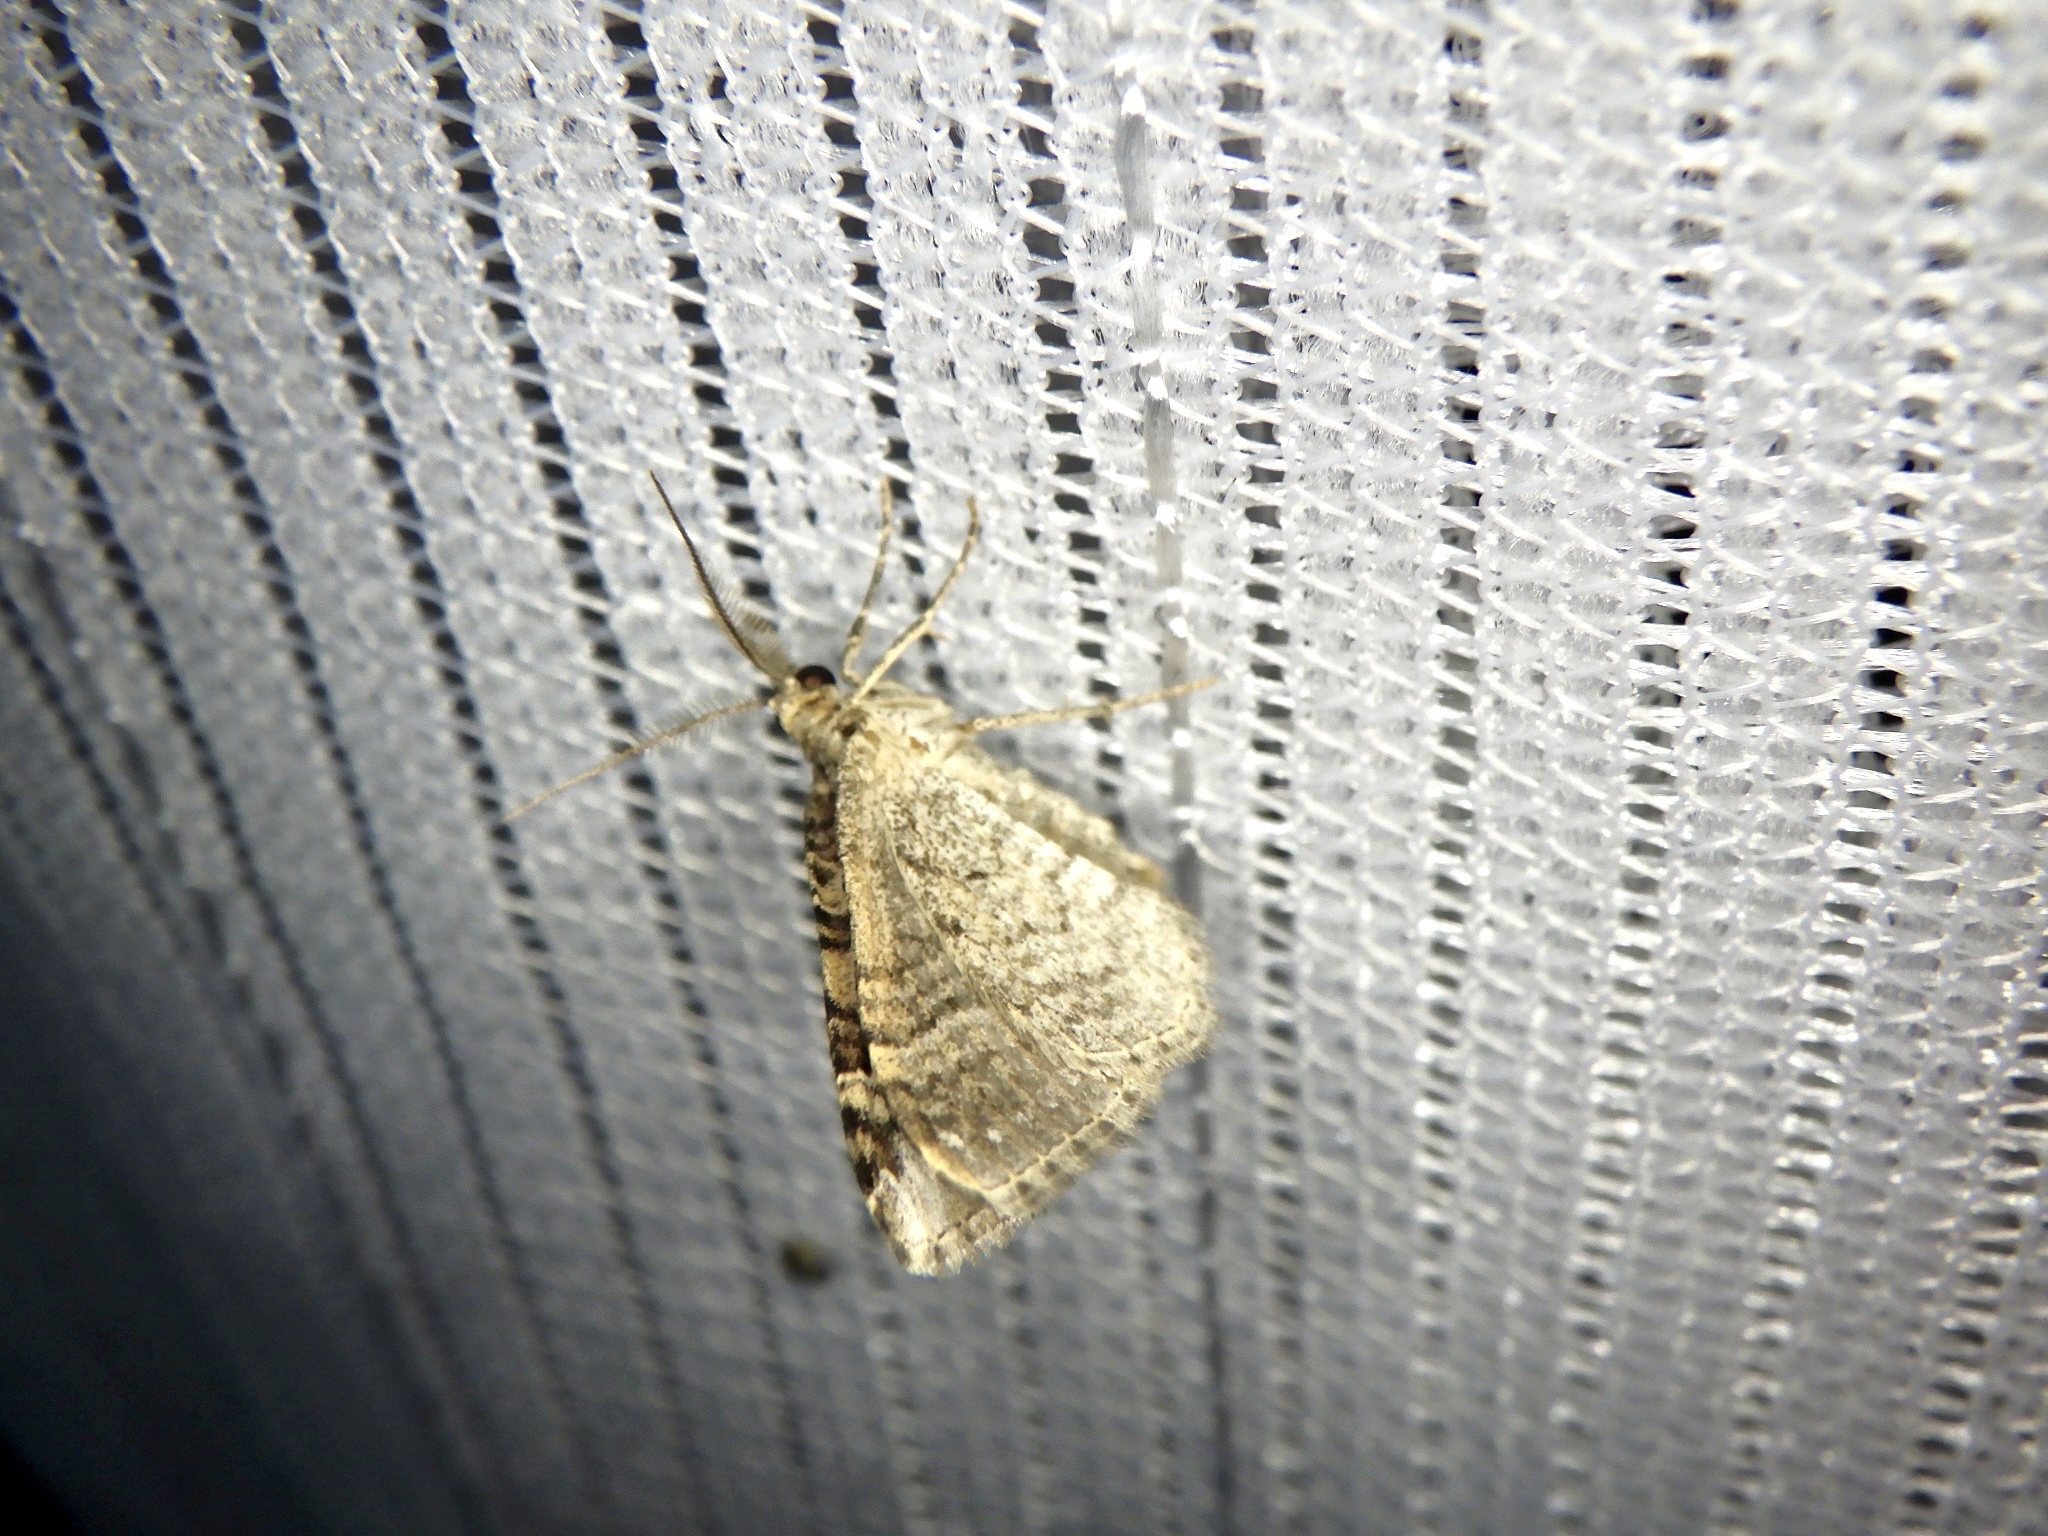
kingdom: Animalia
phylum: Arthropoda
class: Insecta
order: Lepidoptera
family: Geometridae
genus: Microcalcarifera
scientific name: Microcalcarifera obscura
